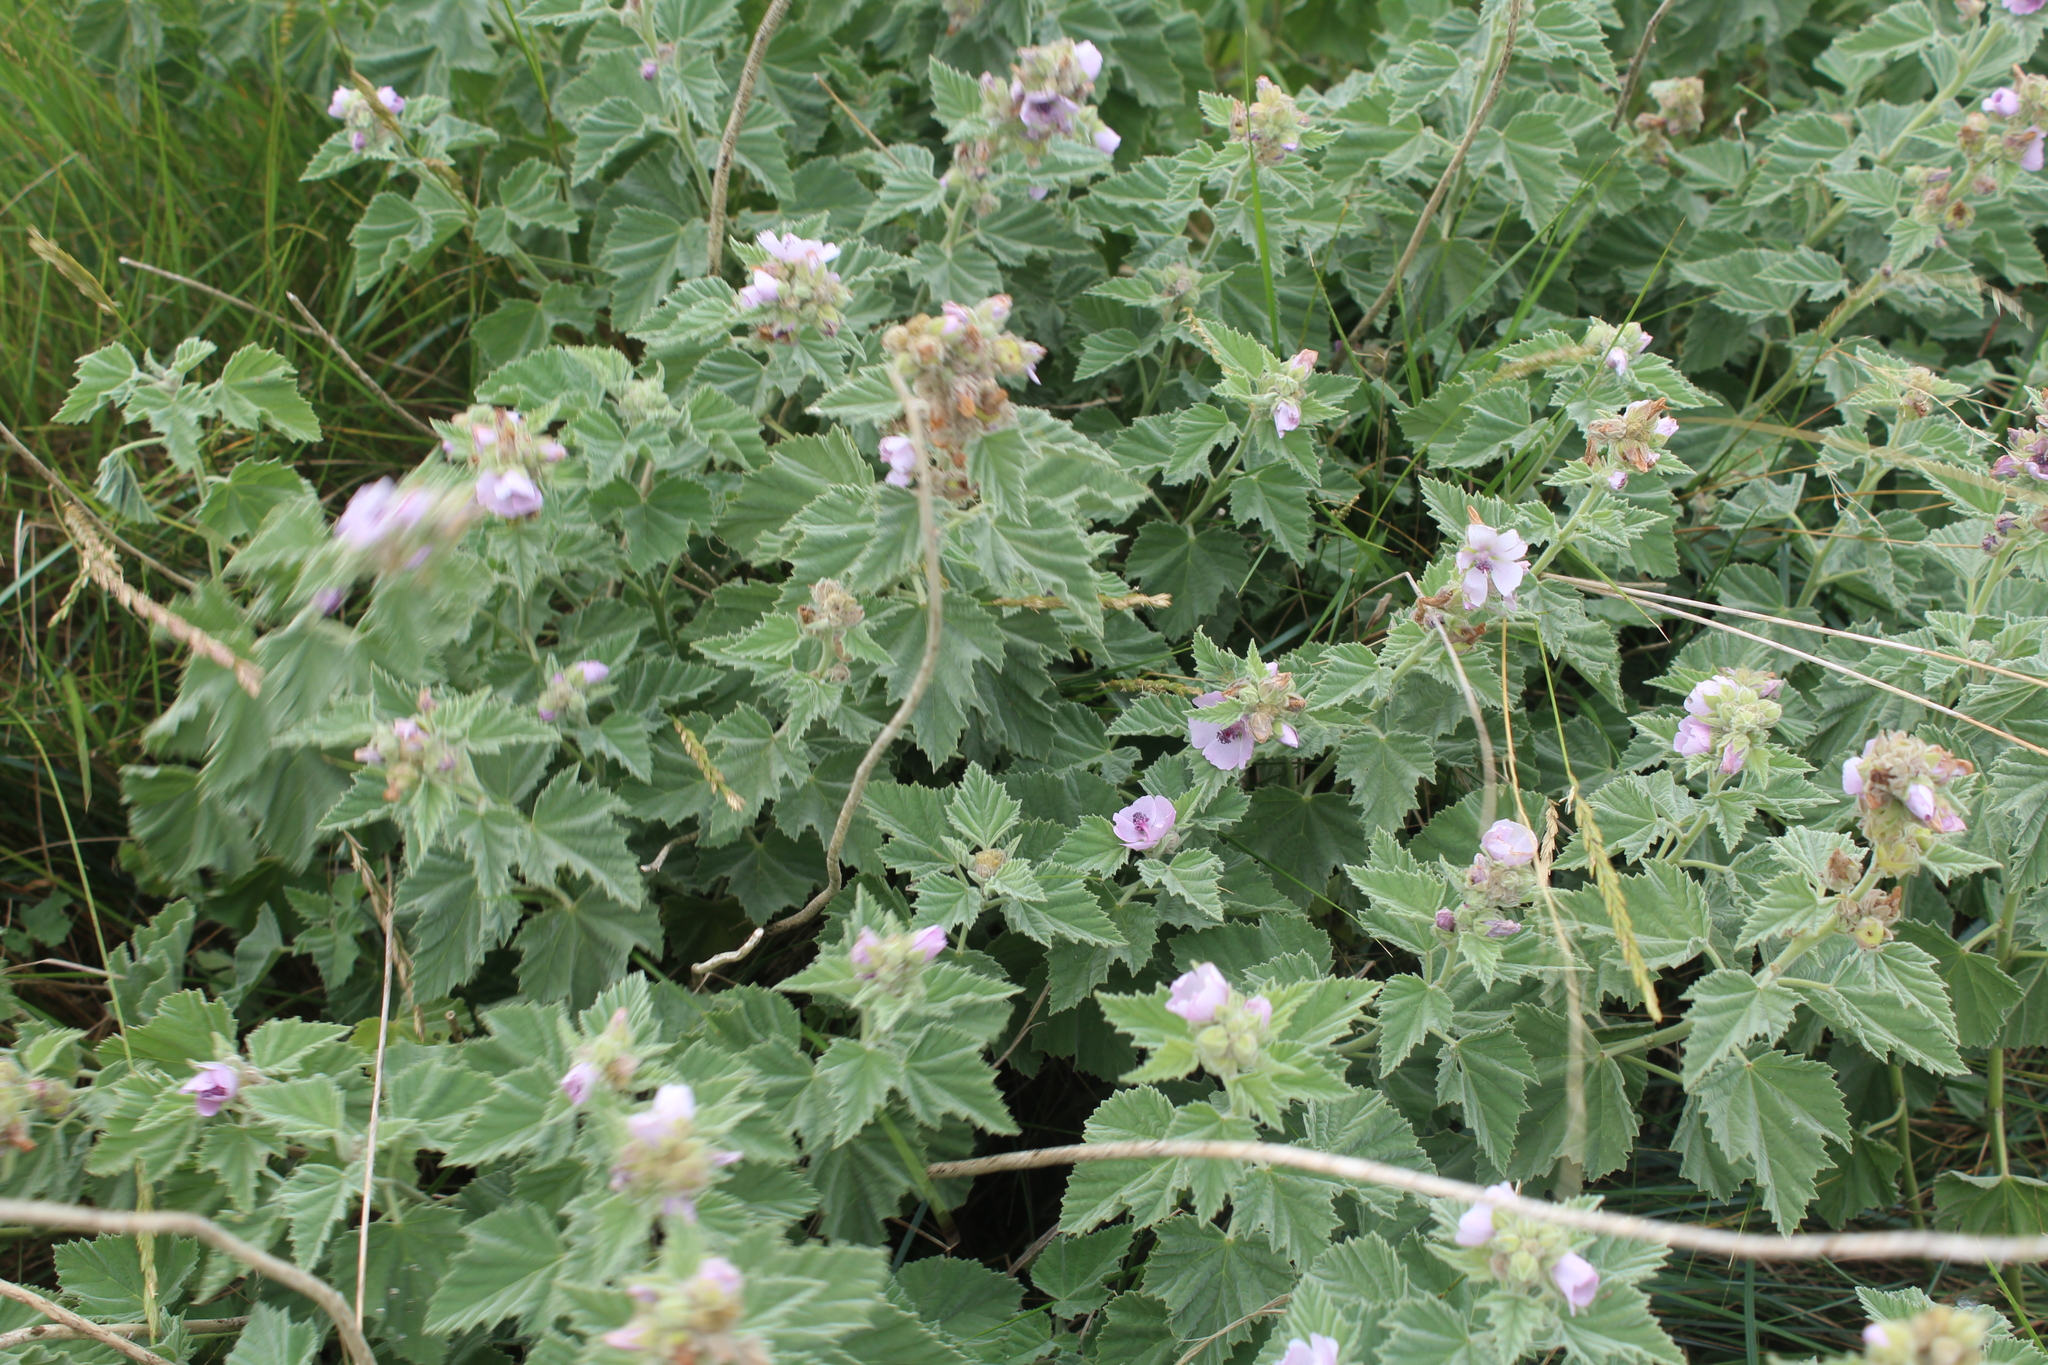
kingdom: Plantae
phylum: Tracheophyta
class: Magnoliopsida
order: Malvales
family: Malvaceae
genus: Althaea
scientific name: Althaea officinalis
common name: Marsh-mallow
